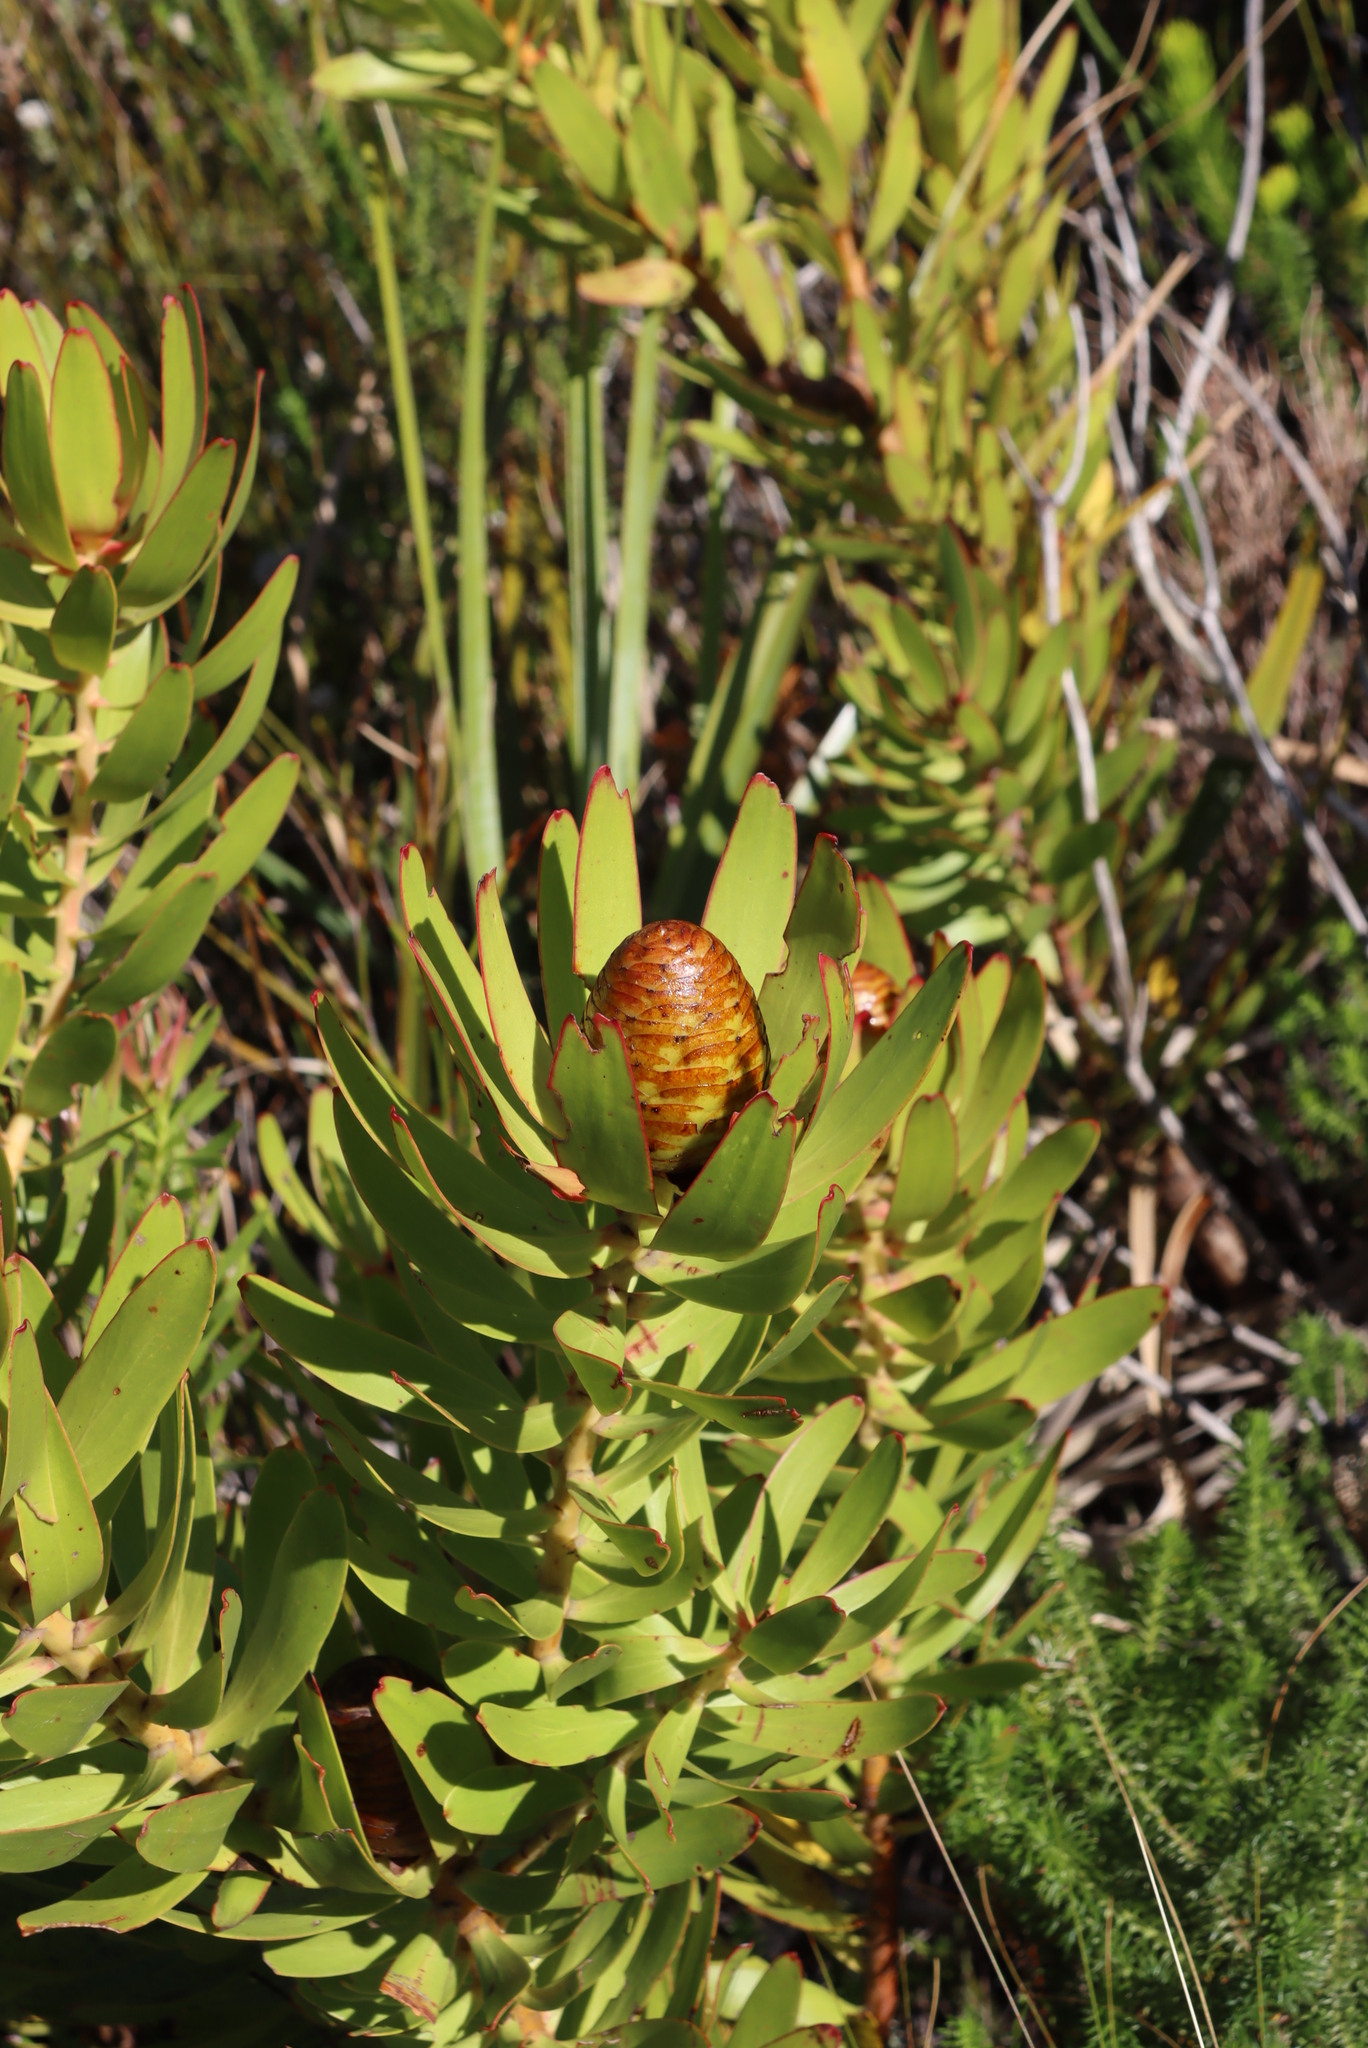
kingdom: Plantae
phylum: Tracheophyta
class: Magnoliopsida
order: Proteales
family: Proteaceae
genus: Leucadendron
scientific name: Leucadendron microcephalum
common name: Oilbract conebush
